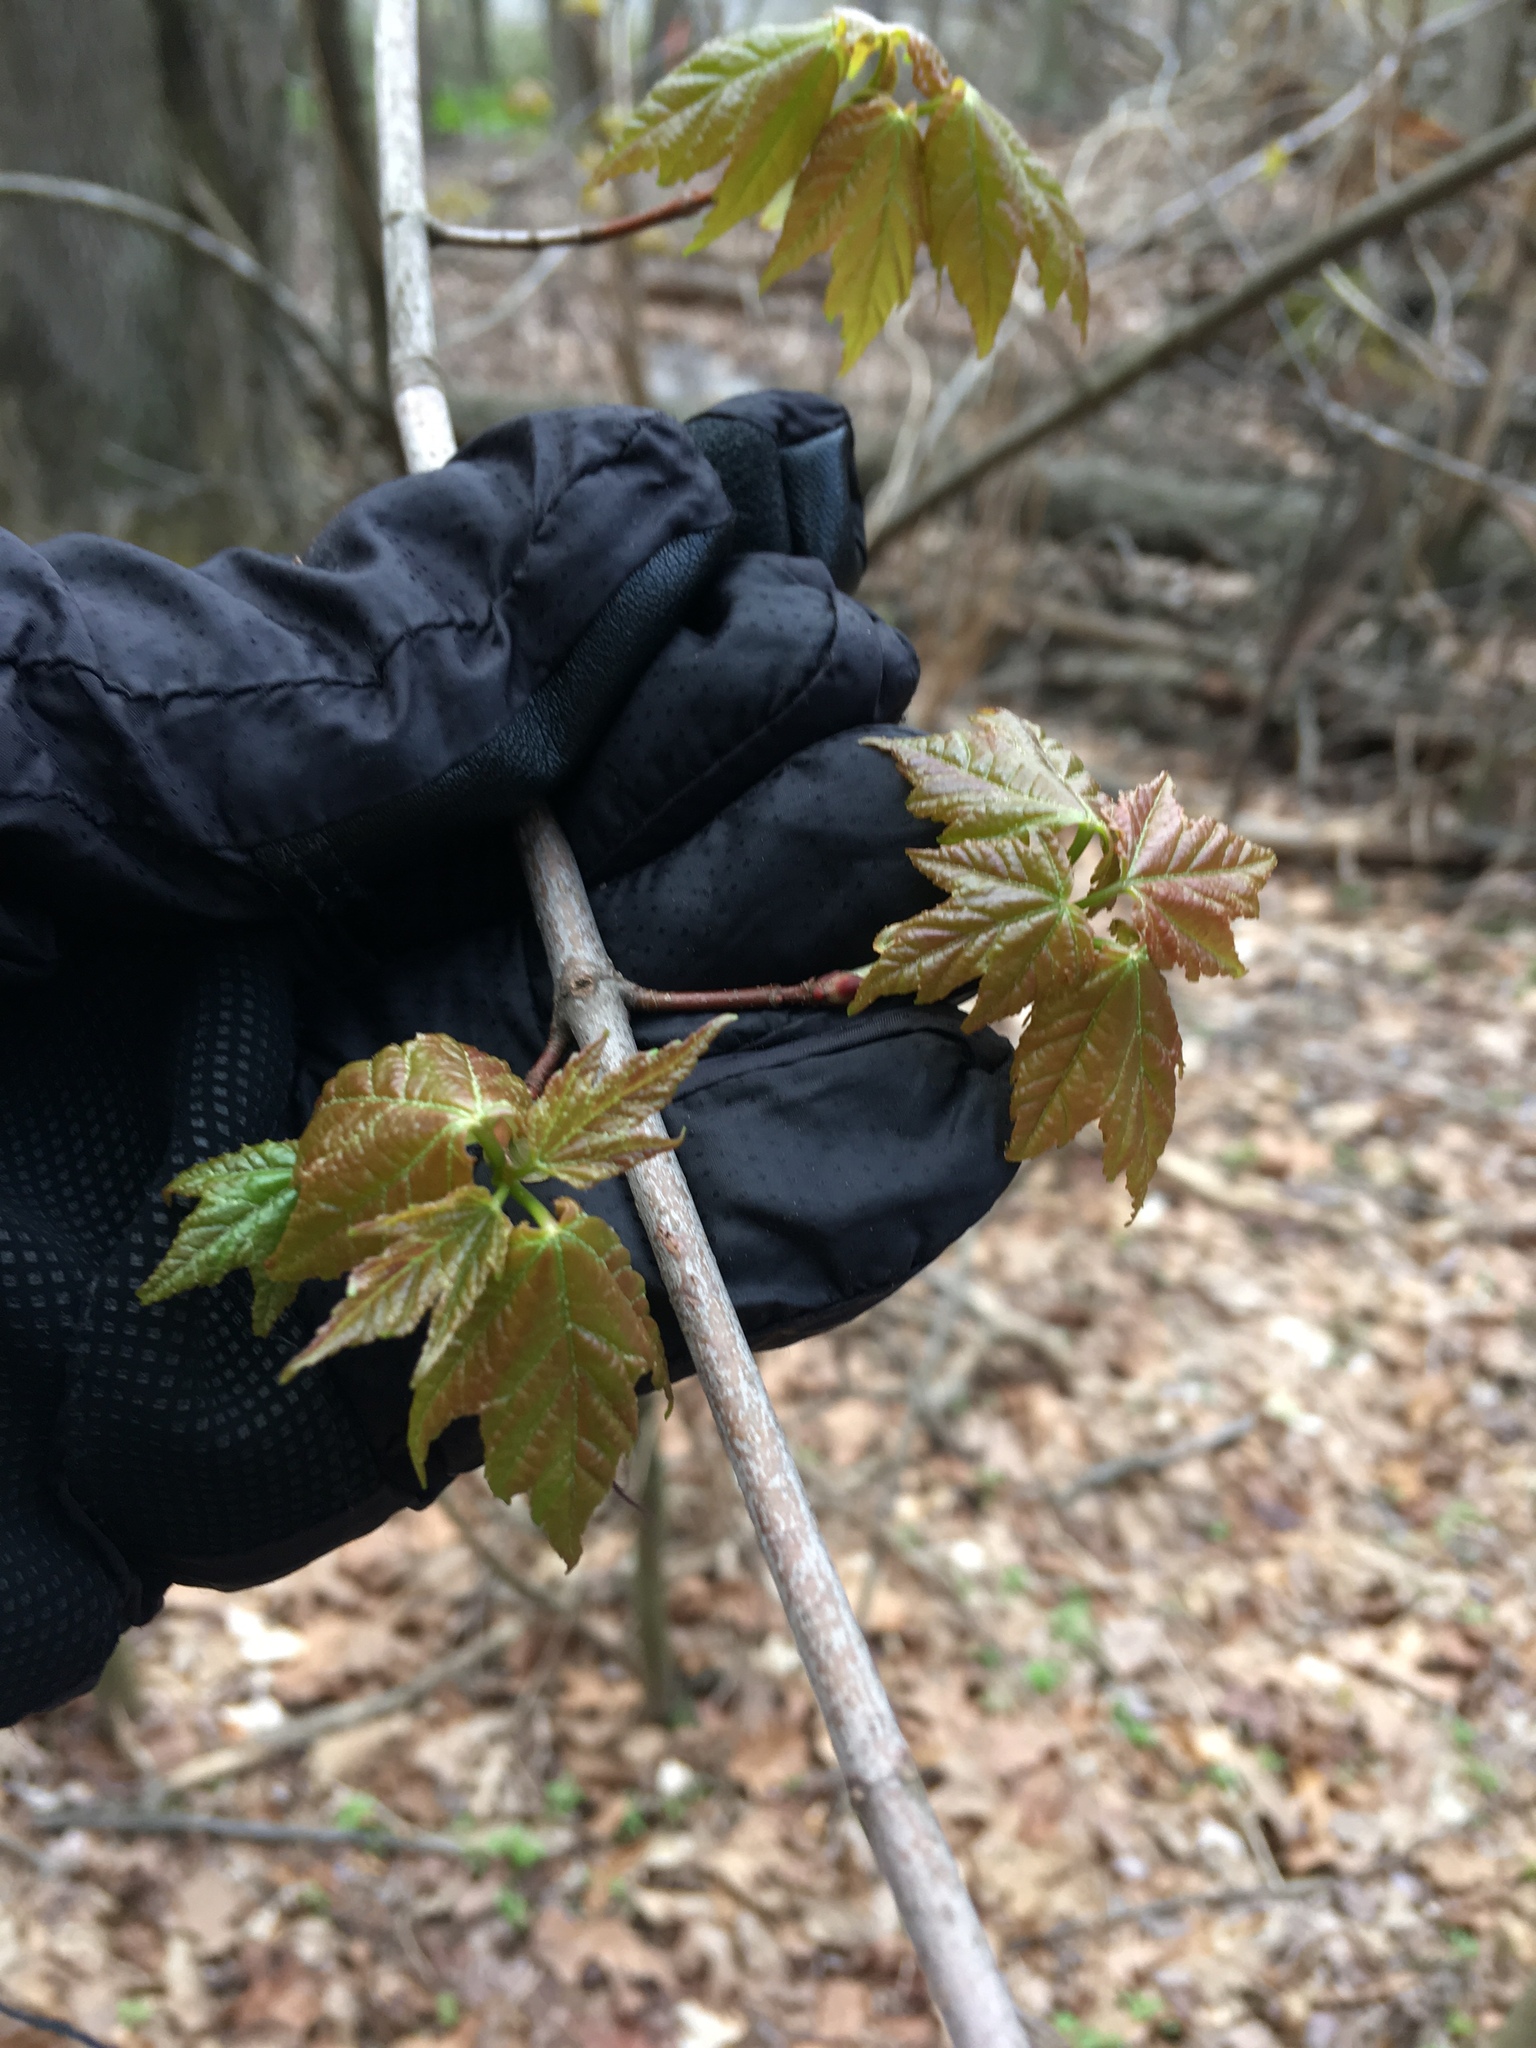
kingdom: Plantae
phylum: Tracheophyta
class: Magnoliopsida
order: Sapindales
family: Sapindaceae
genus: Acer
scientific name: Acer rubrum
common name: Red maple
